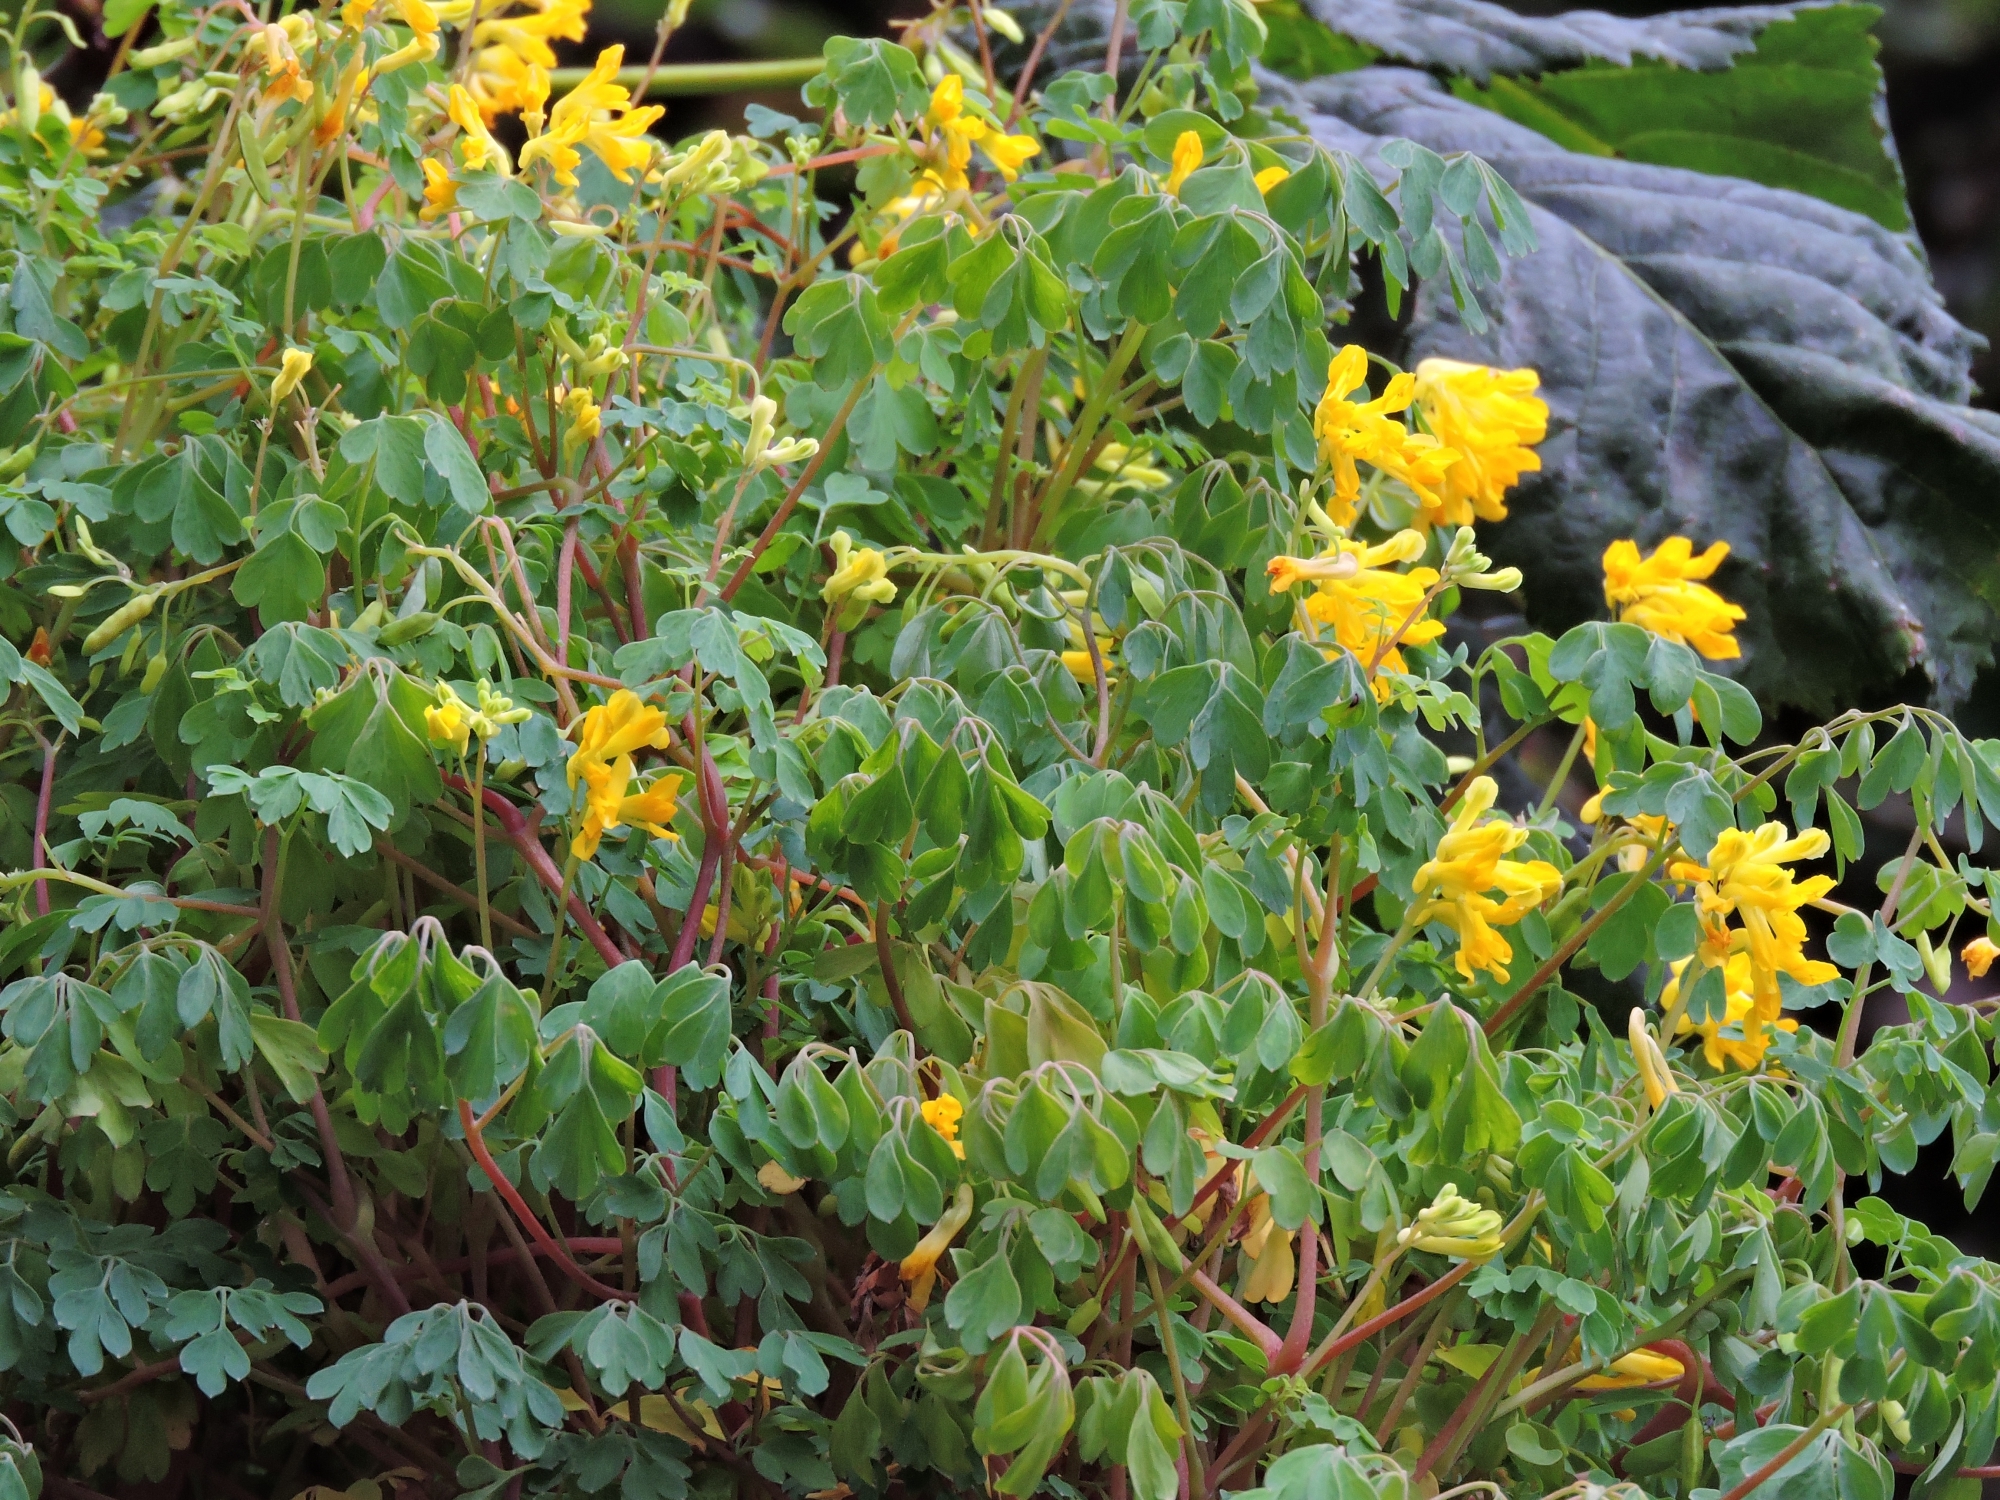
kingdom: Plantae
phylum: Tracheophyta
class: Magnoliopsida
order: Ranunculales
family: Papaveraceae
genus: Pseudofumaria
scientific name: Pseudofumaria lutea
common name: Yellow corydalis
